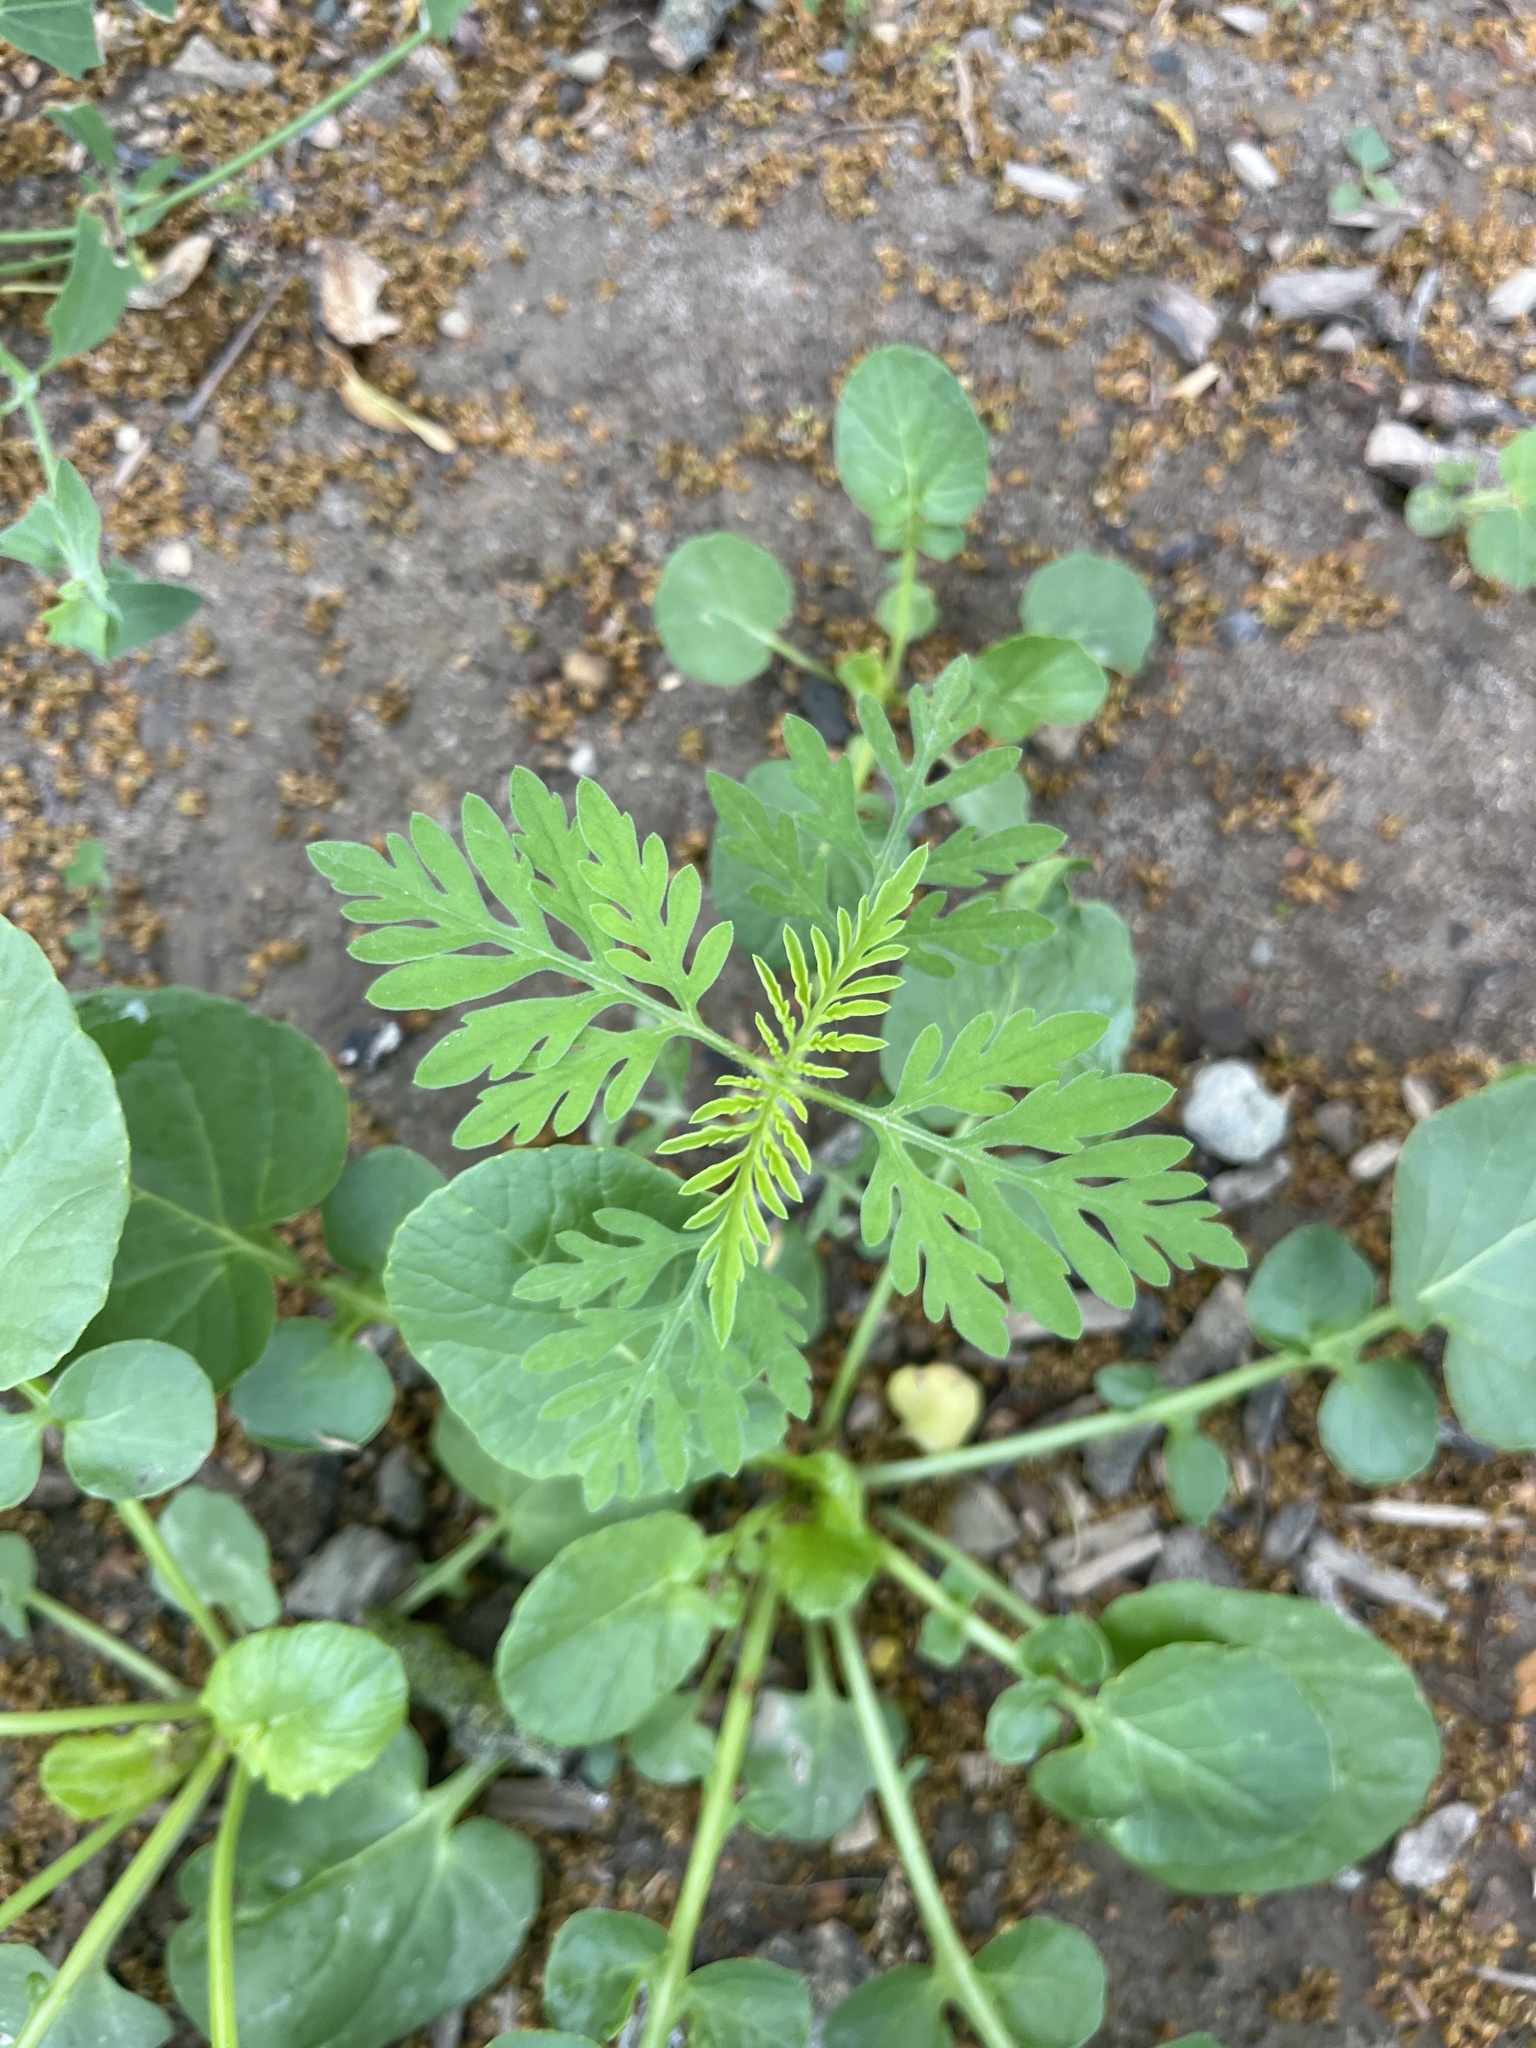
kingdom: Plantae
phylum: Tracheophyta
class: Magnoliopsida
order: Asterales
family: Asteraceae
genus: Ambrosia
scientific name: Ambrosia artemisiifolia
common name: Annual ragweed
